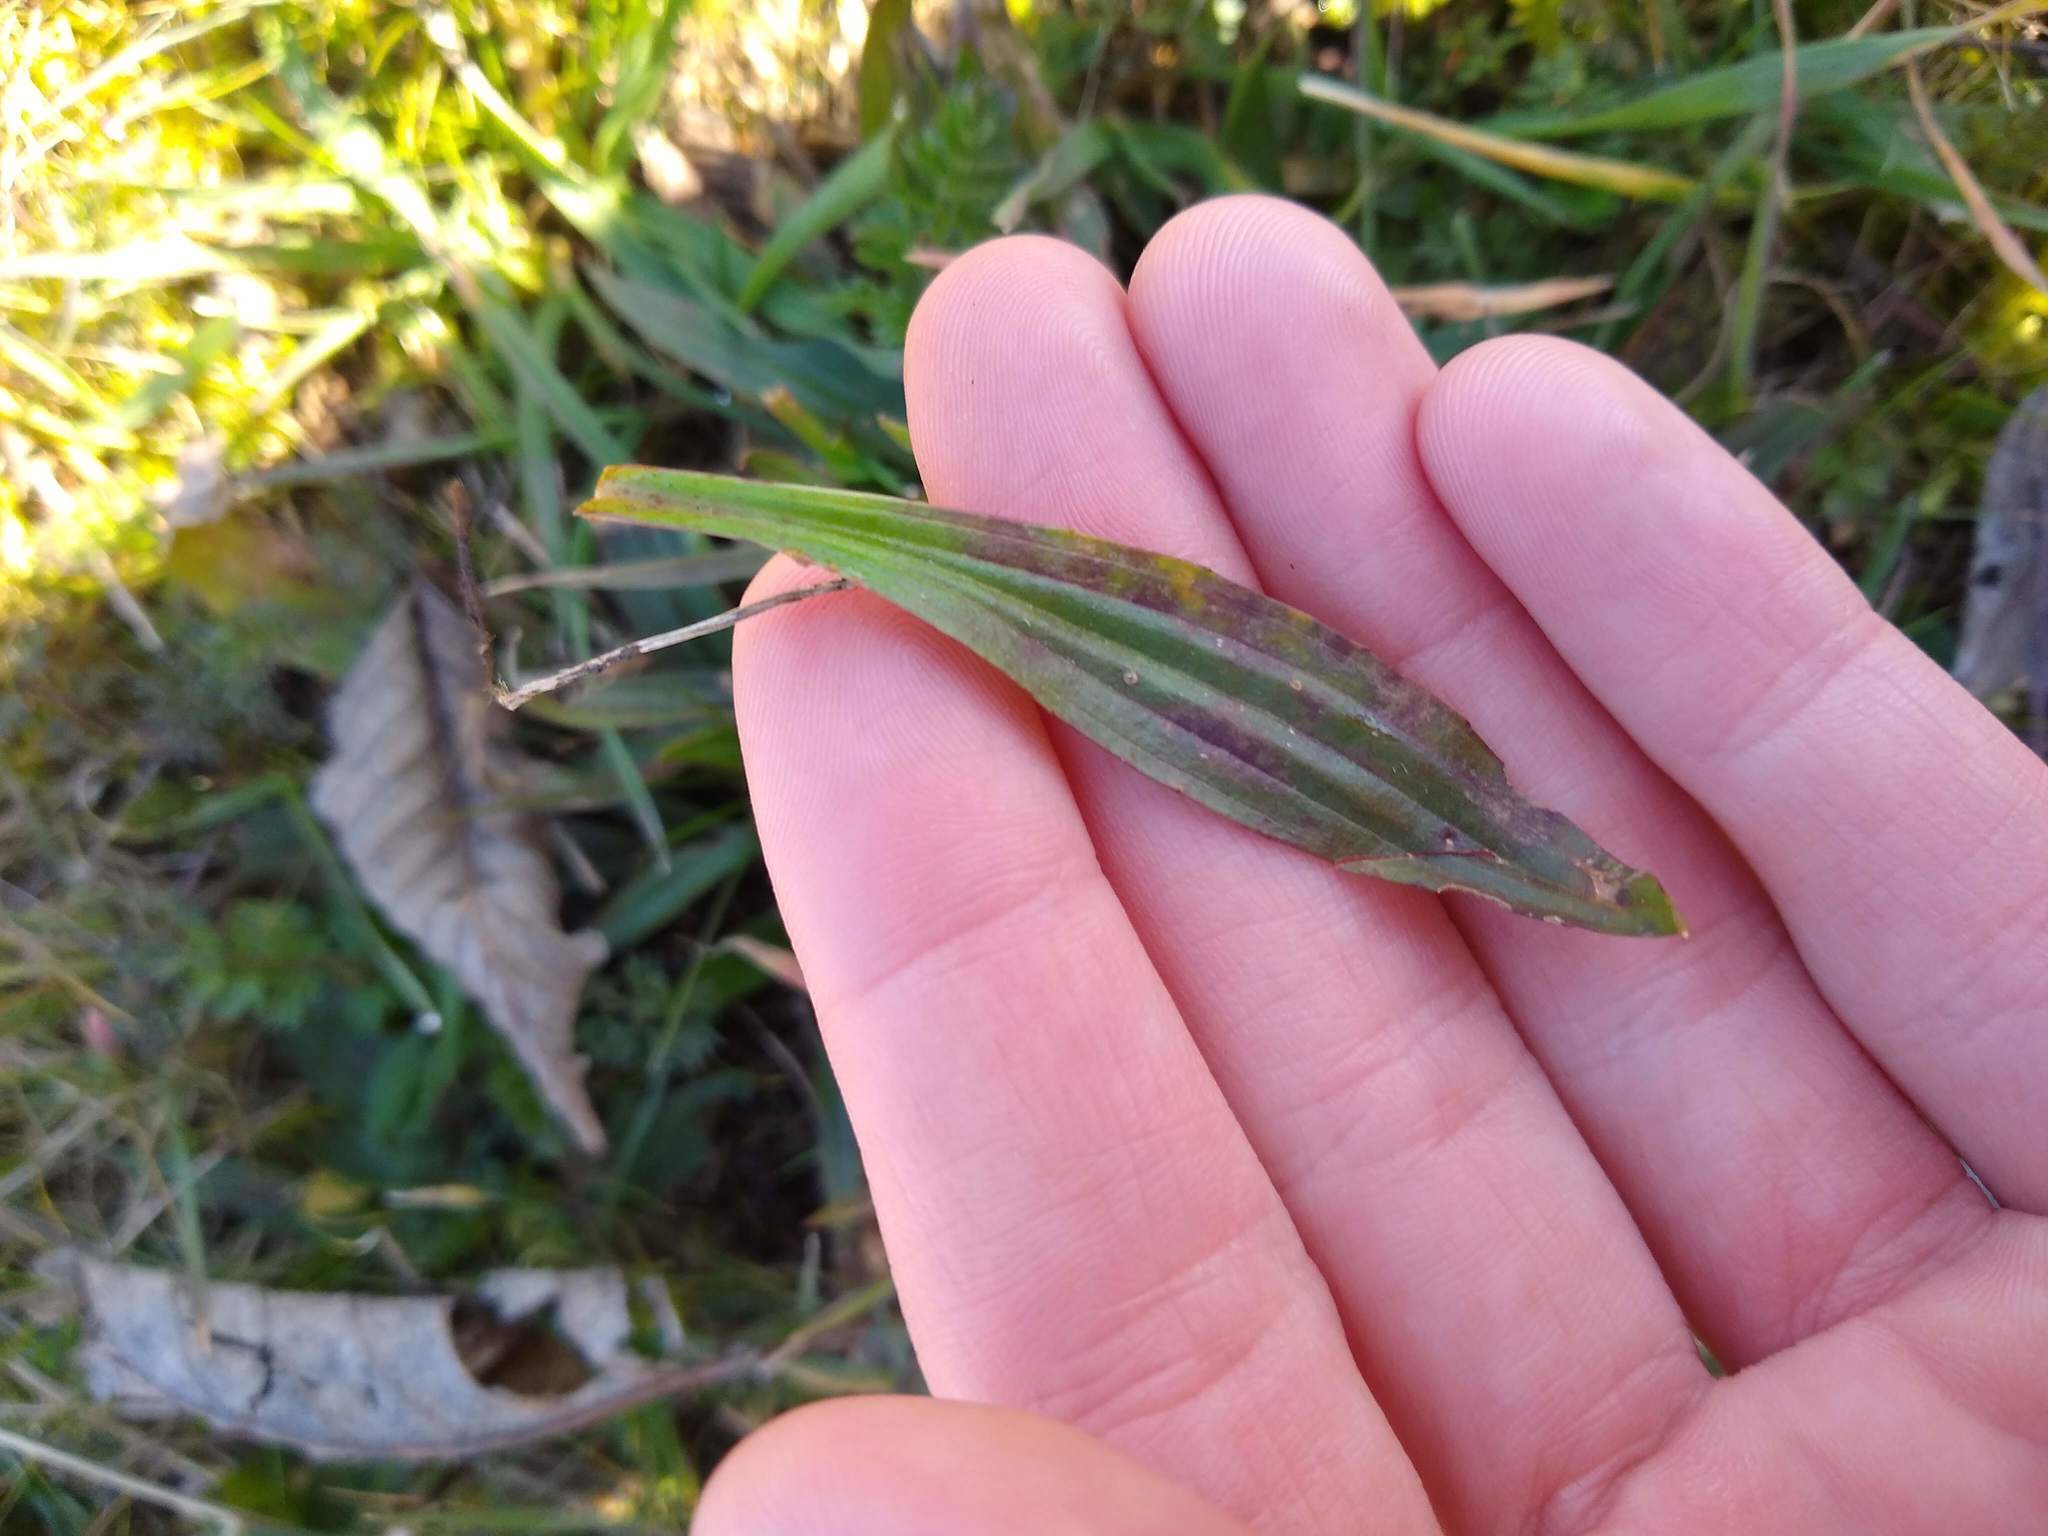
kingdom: Plantae
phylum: Tracheophyta
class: Magnoliopsida
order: Lamiales
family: Plantaginaceae
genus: Plantago
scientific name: Plantago lanceolata
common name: Ribwort plantain
